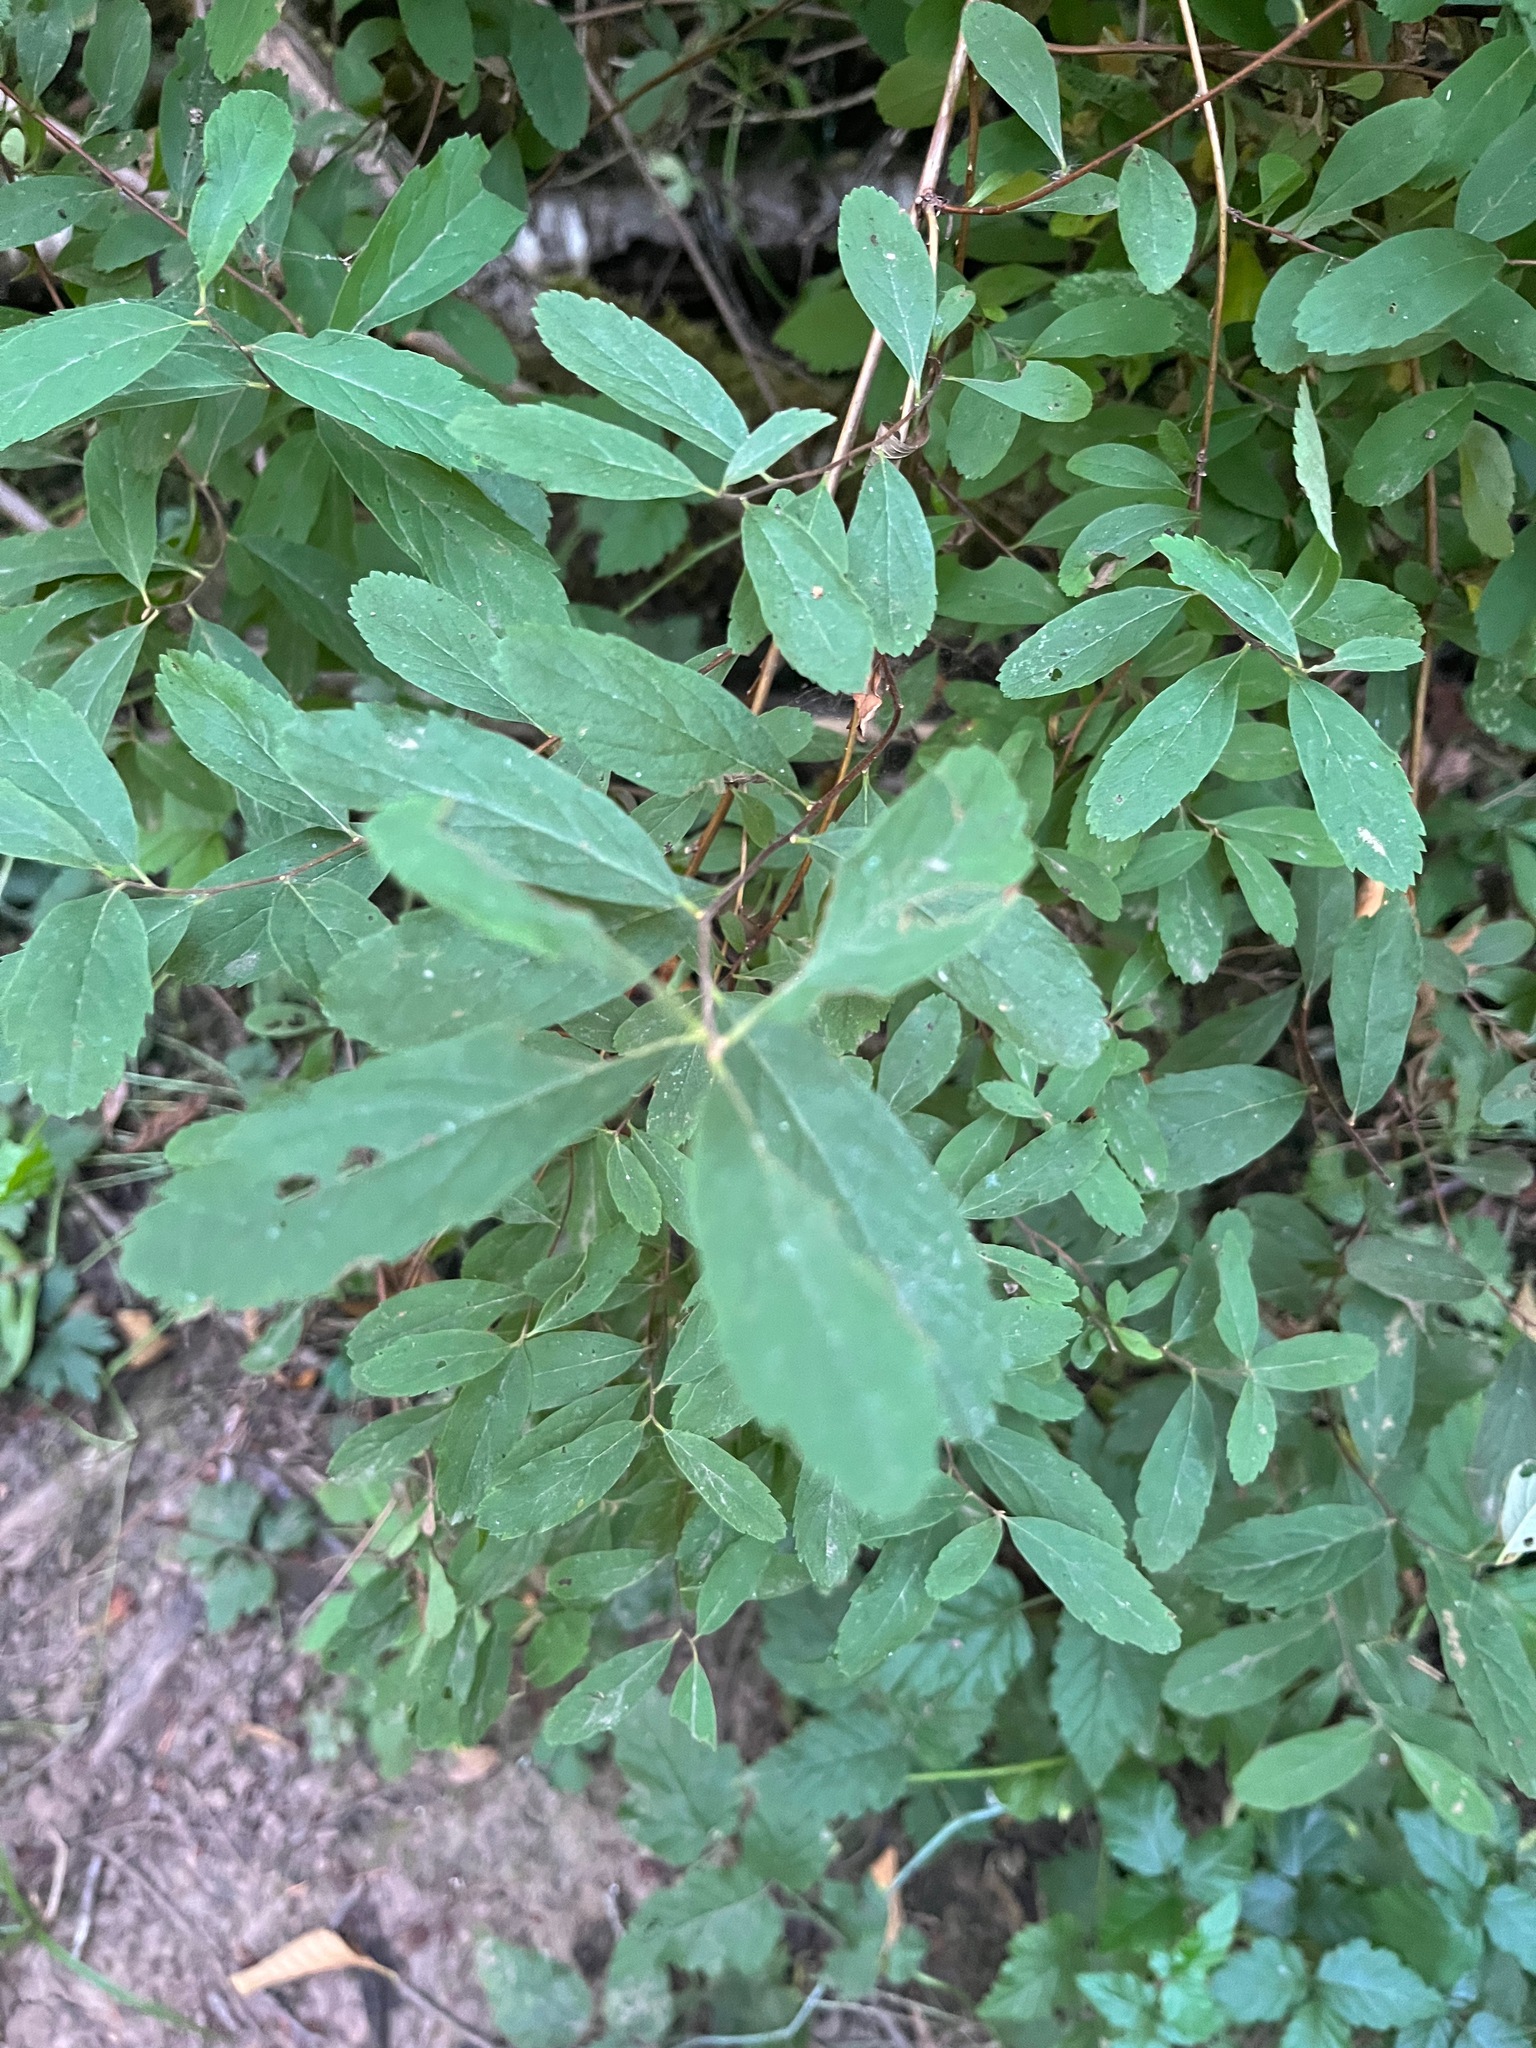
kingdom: Plantae
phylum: Tracheophyta
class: Magnoliopsida
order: Rosales
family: Rosaceae
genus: Spiraea
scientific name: Spiraea douglasii
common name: Steeplebush
